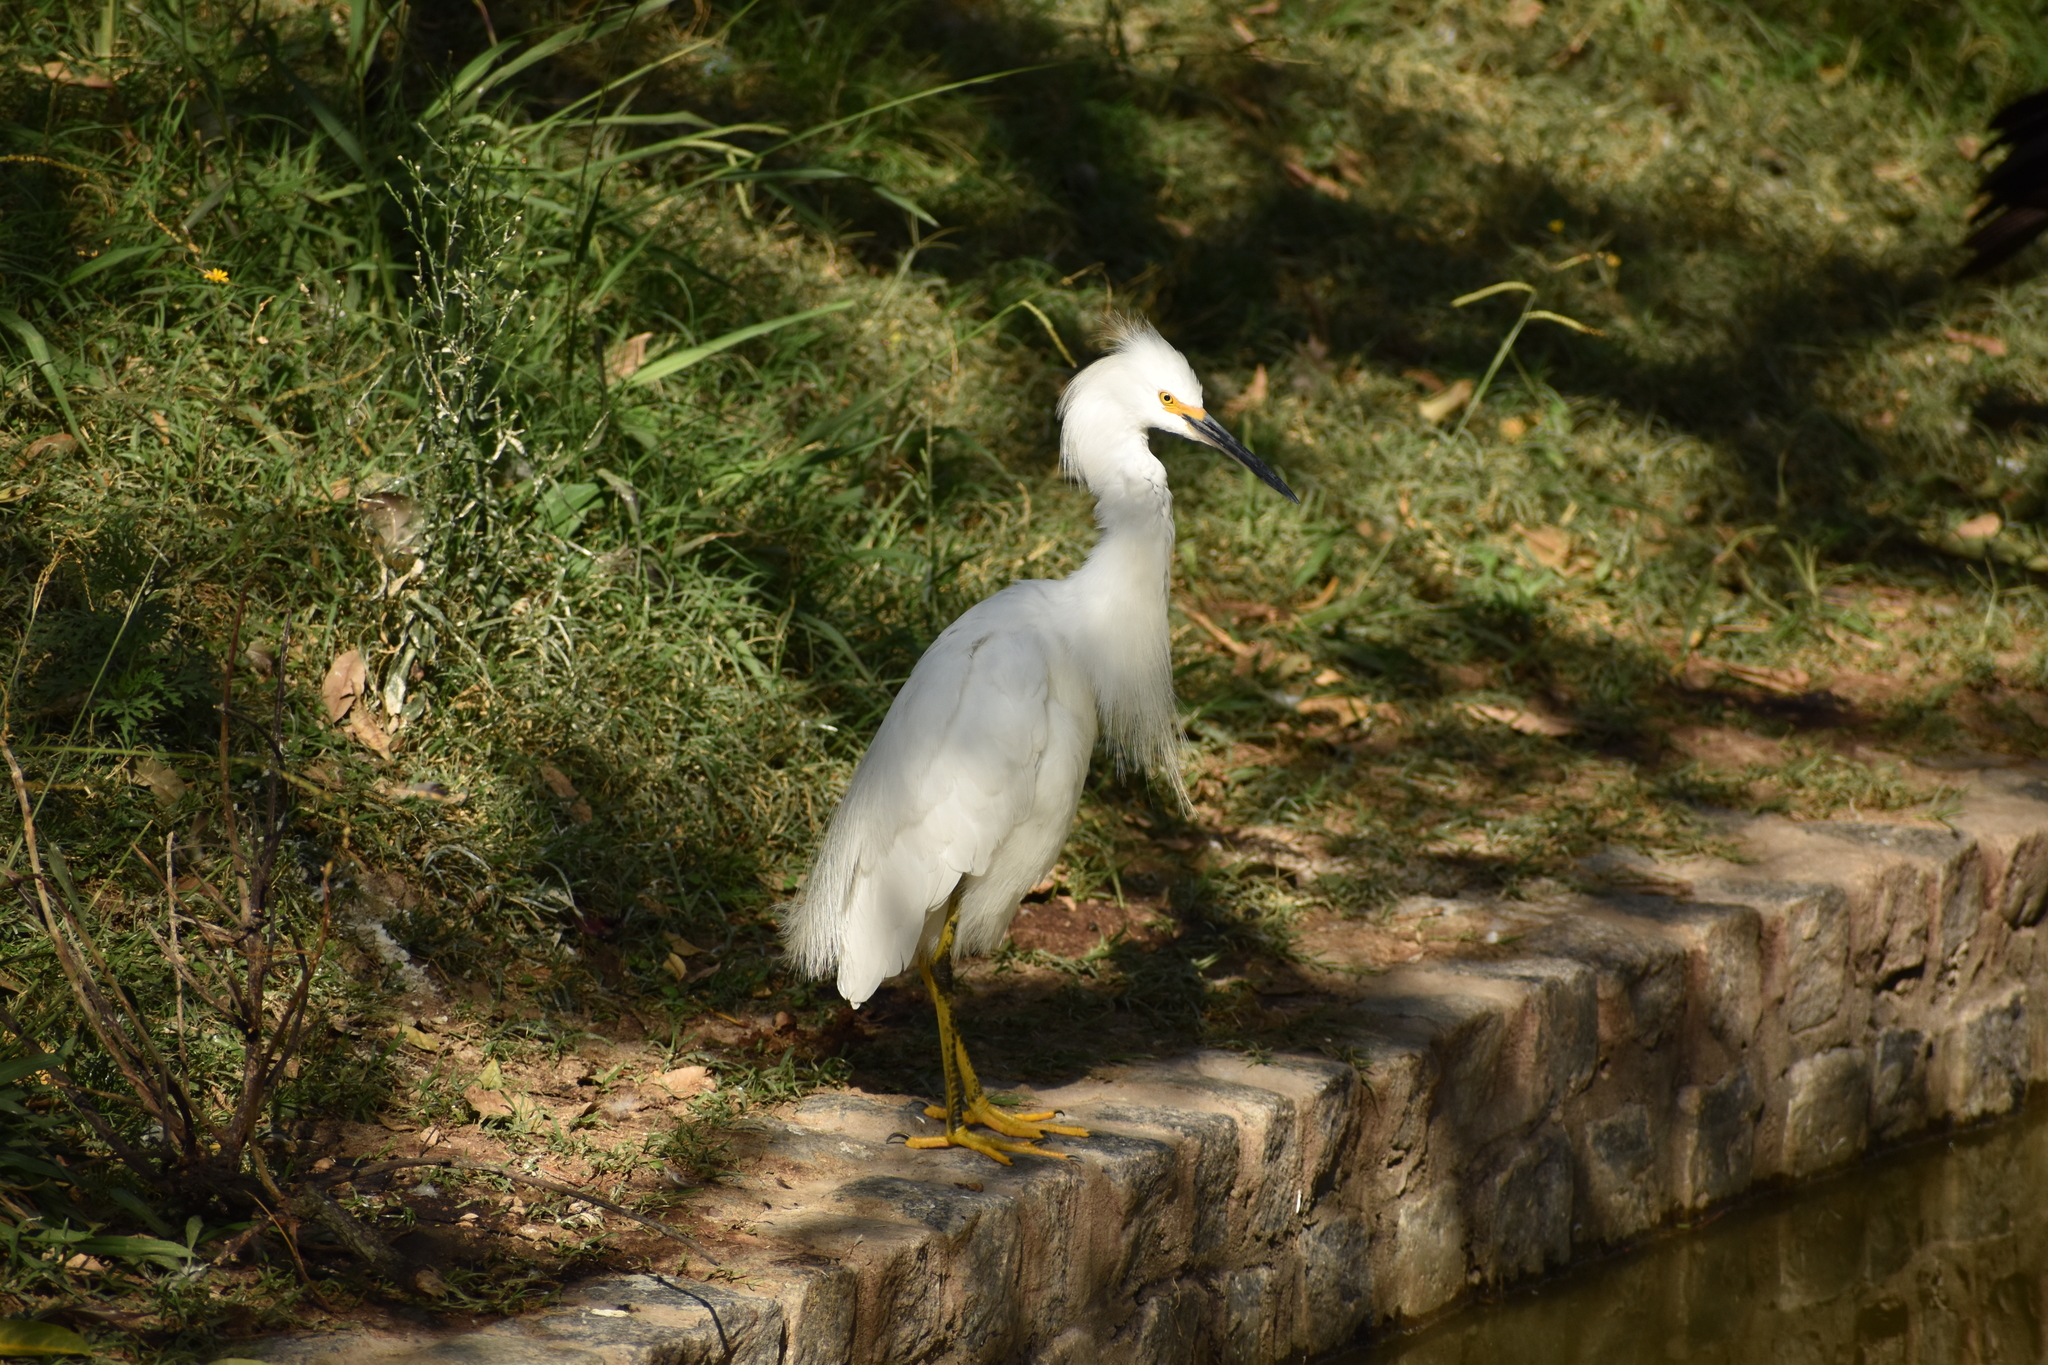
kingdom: Animalia
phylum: Chordata
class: Aves
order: Pelecaniformes
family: Ardeidae
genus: Egretta
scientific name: Egretta thula
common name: Snowy egret
